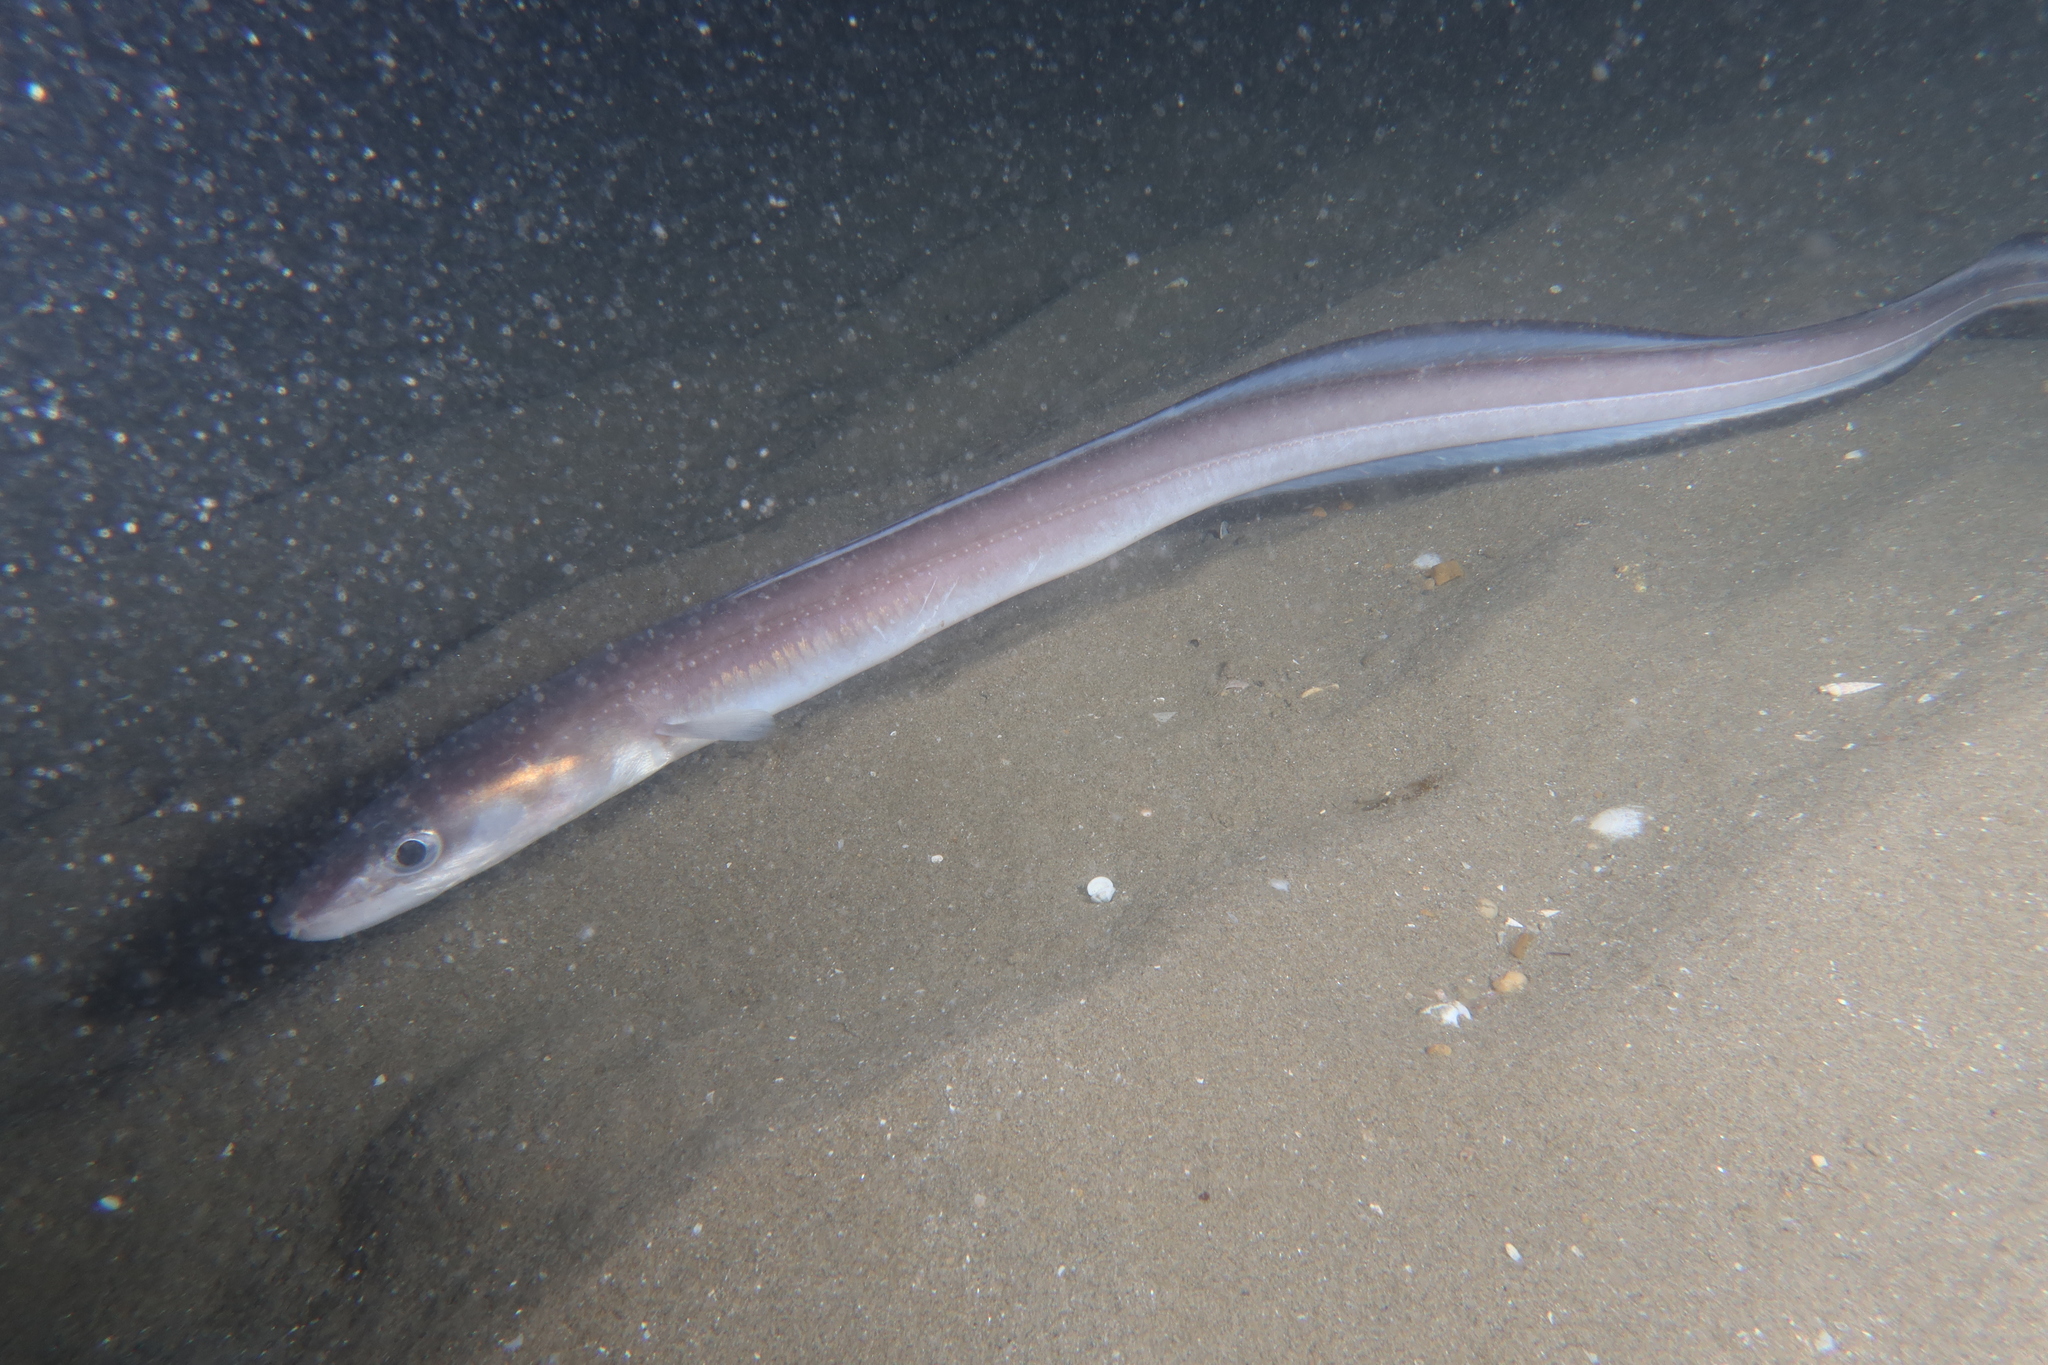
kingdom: Animalia
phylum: Chordata
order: Anguilliformes
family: Congridae
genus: Conger
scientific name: Conger conger
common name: Conger eel
